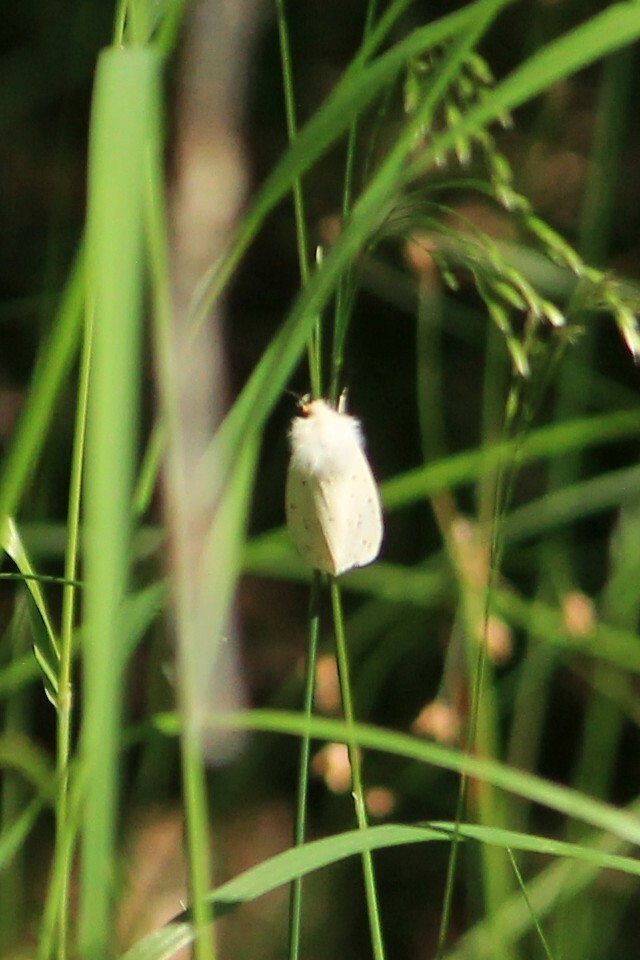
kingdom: Animalia
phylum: Arthropoda
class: Insecta
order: Lepidoptera
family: Erebidae
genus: Spilosoma
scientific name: Spilosoma lubricipeda
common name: White ermine
